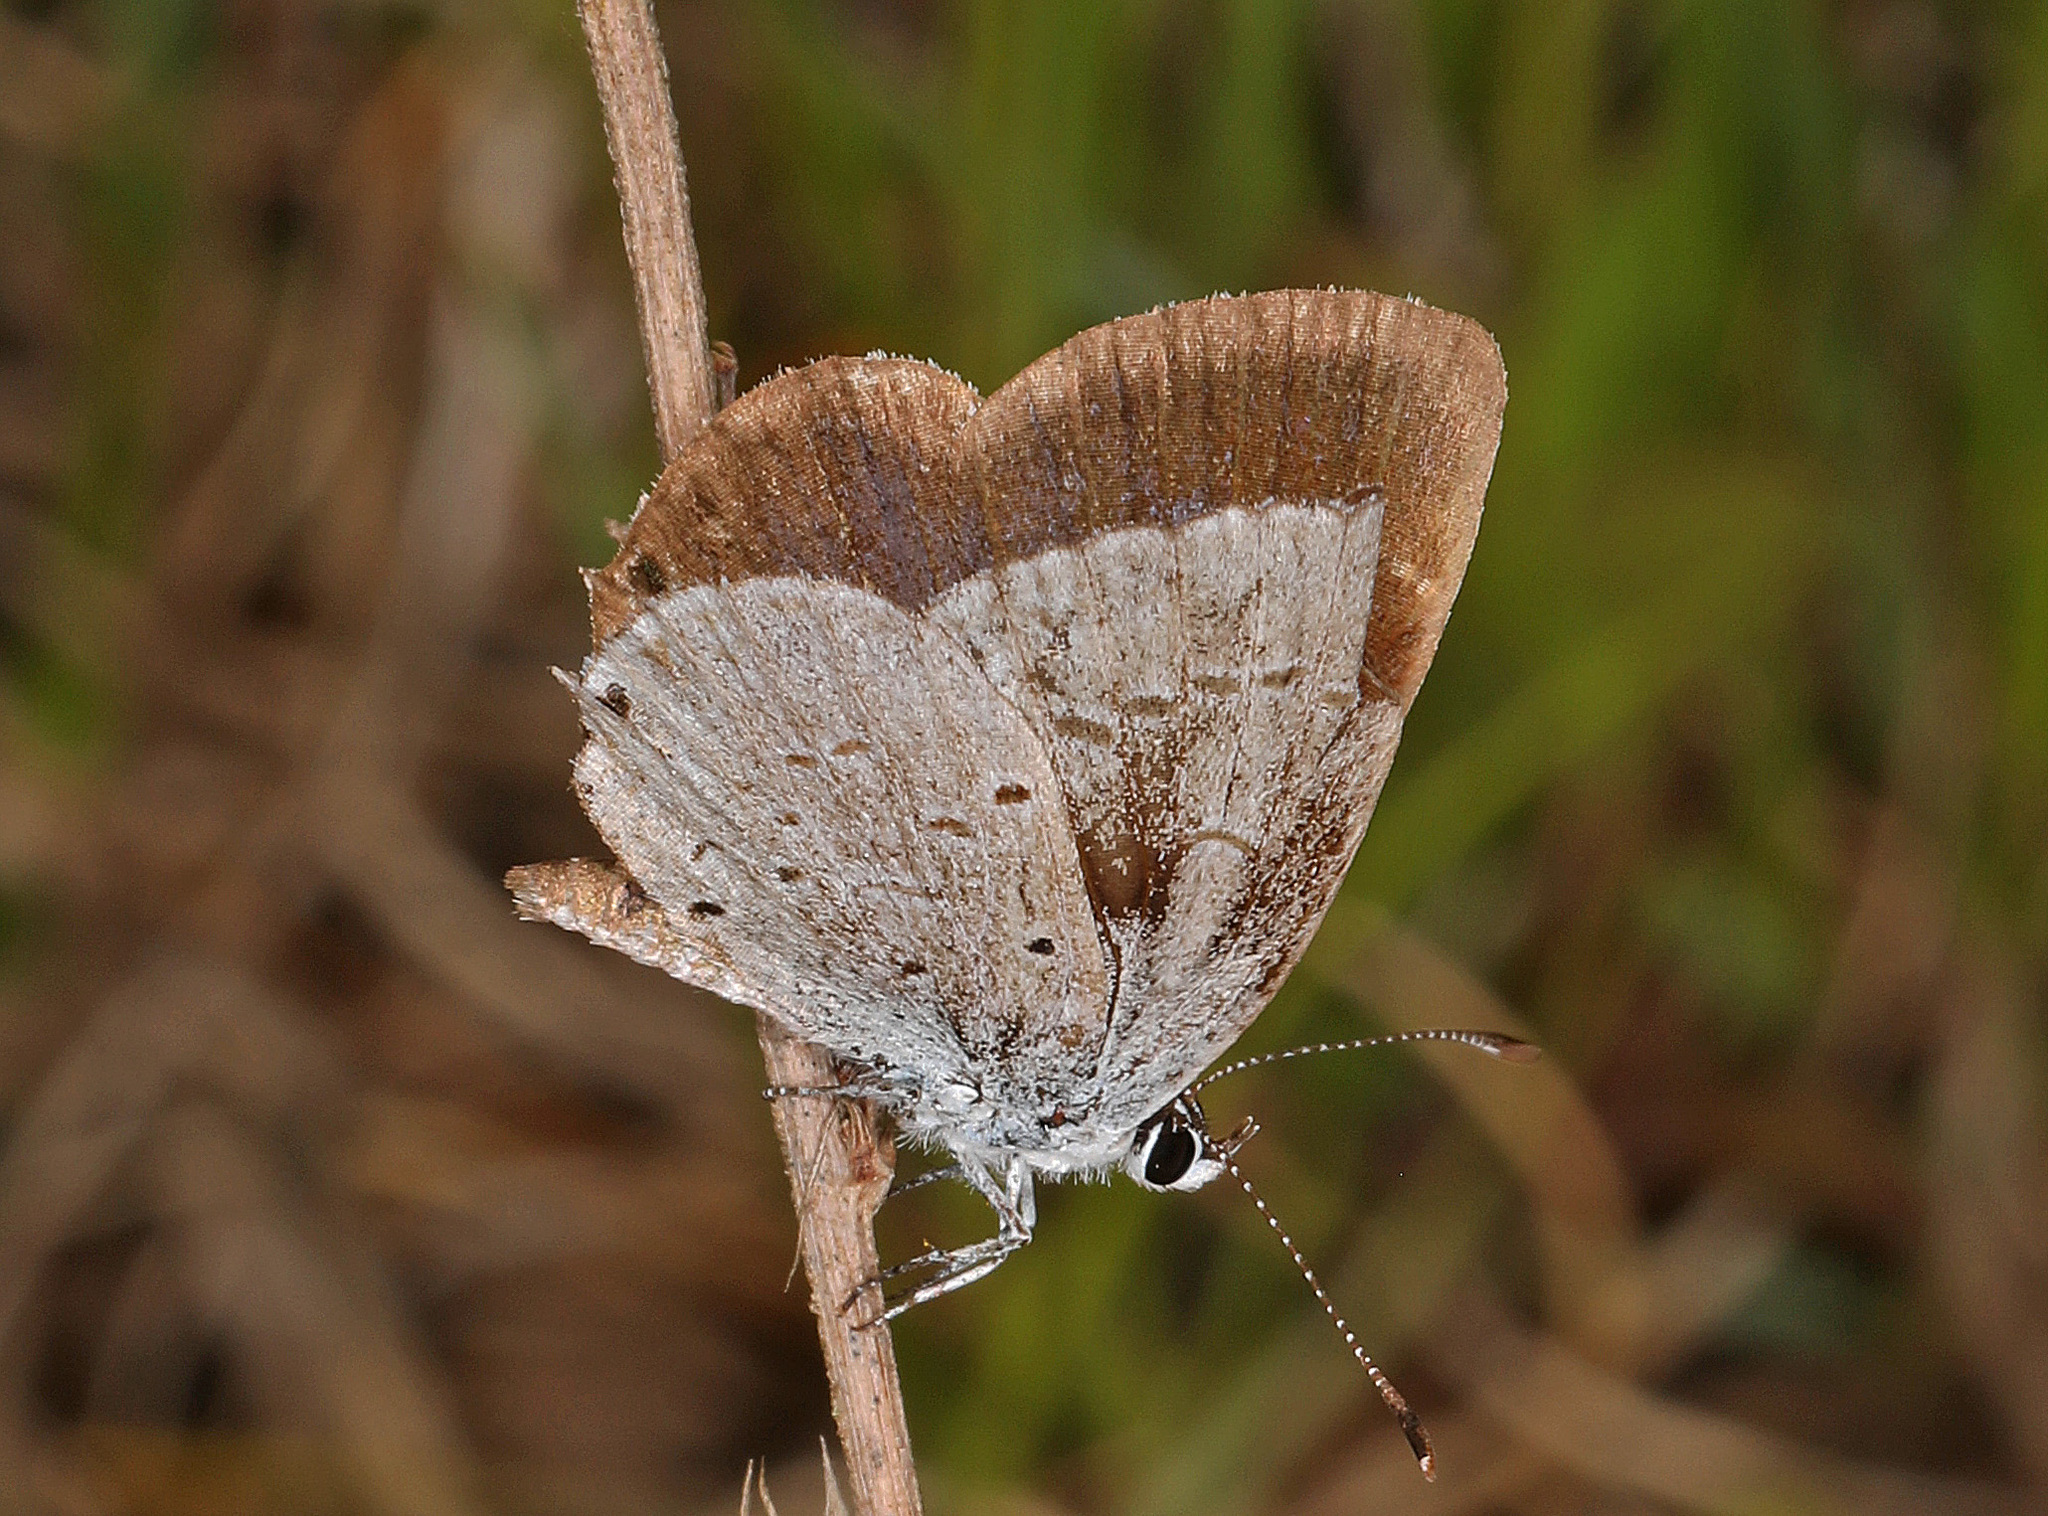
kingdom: Animalia
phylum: Arthropoda
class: Insecta
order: Lepidoptera
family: Lycaenidae
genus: Elkalyce
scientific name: Elkalyce comyntas
